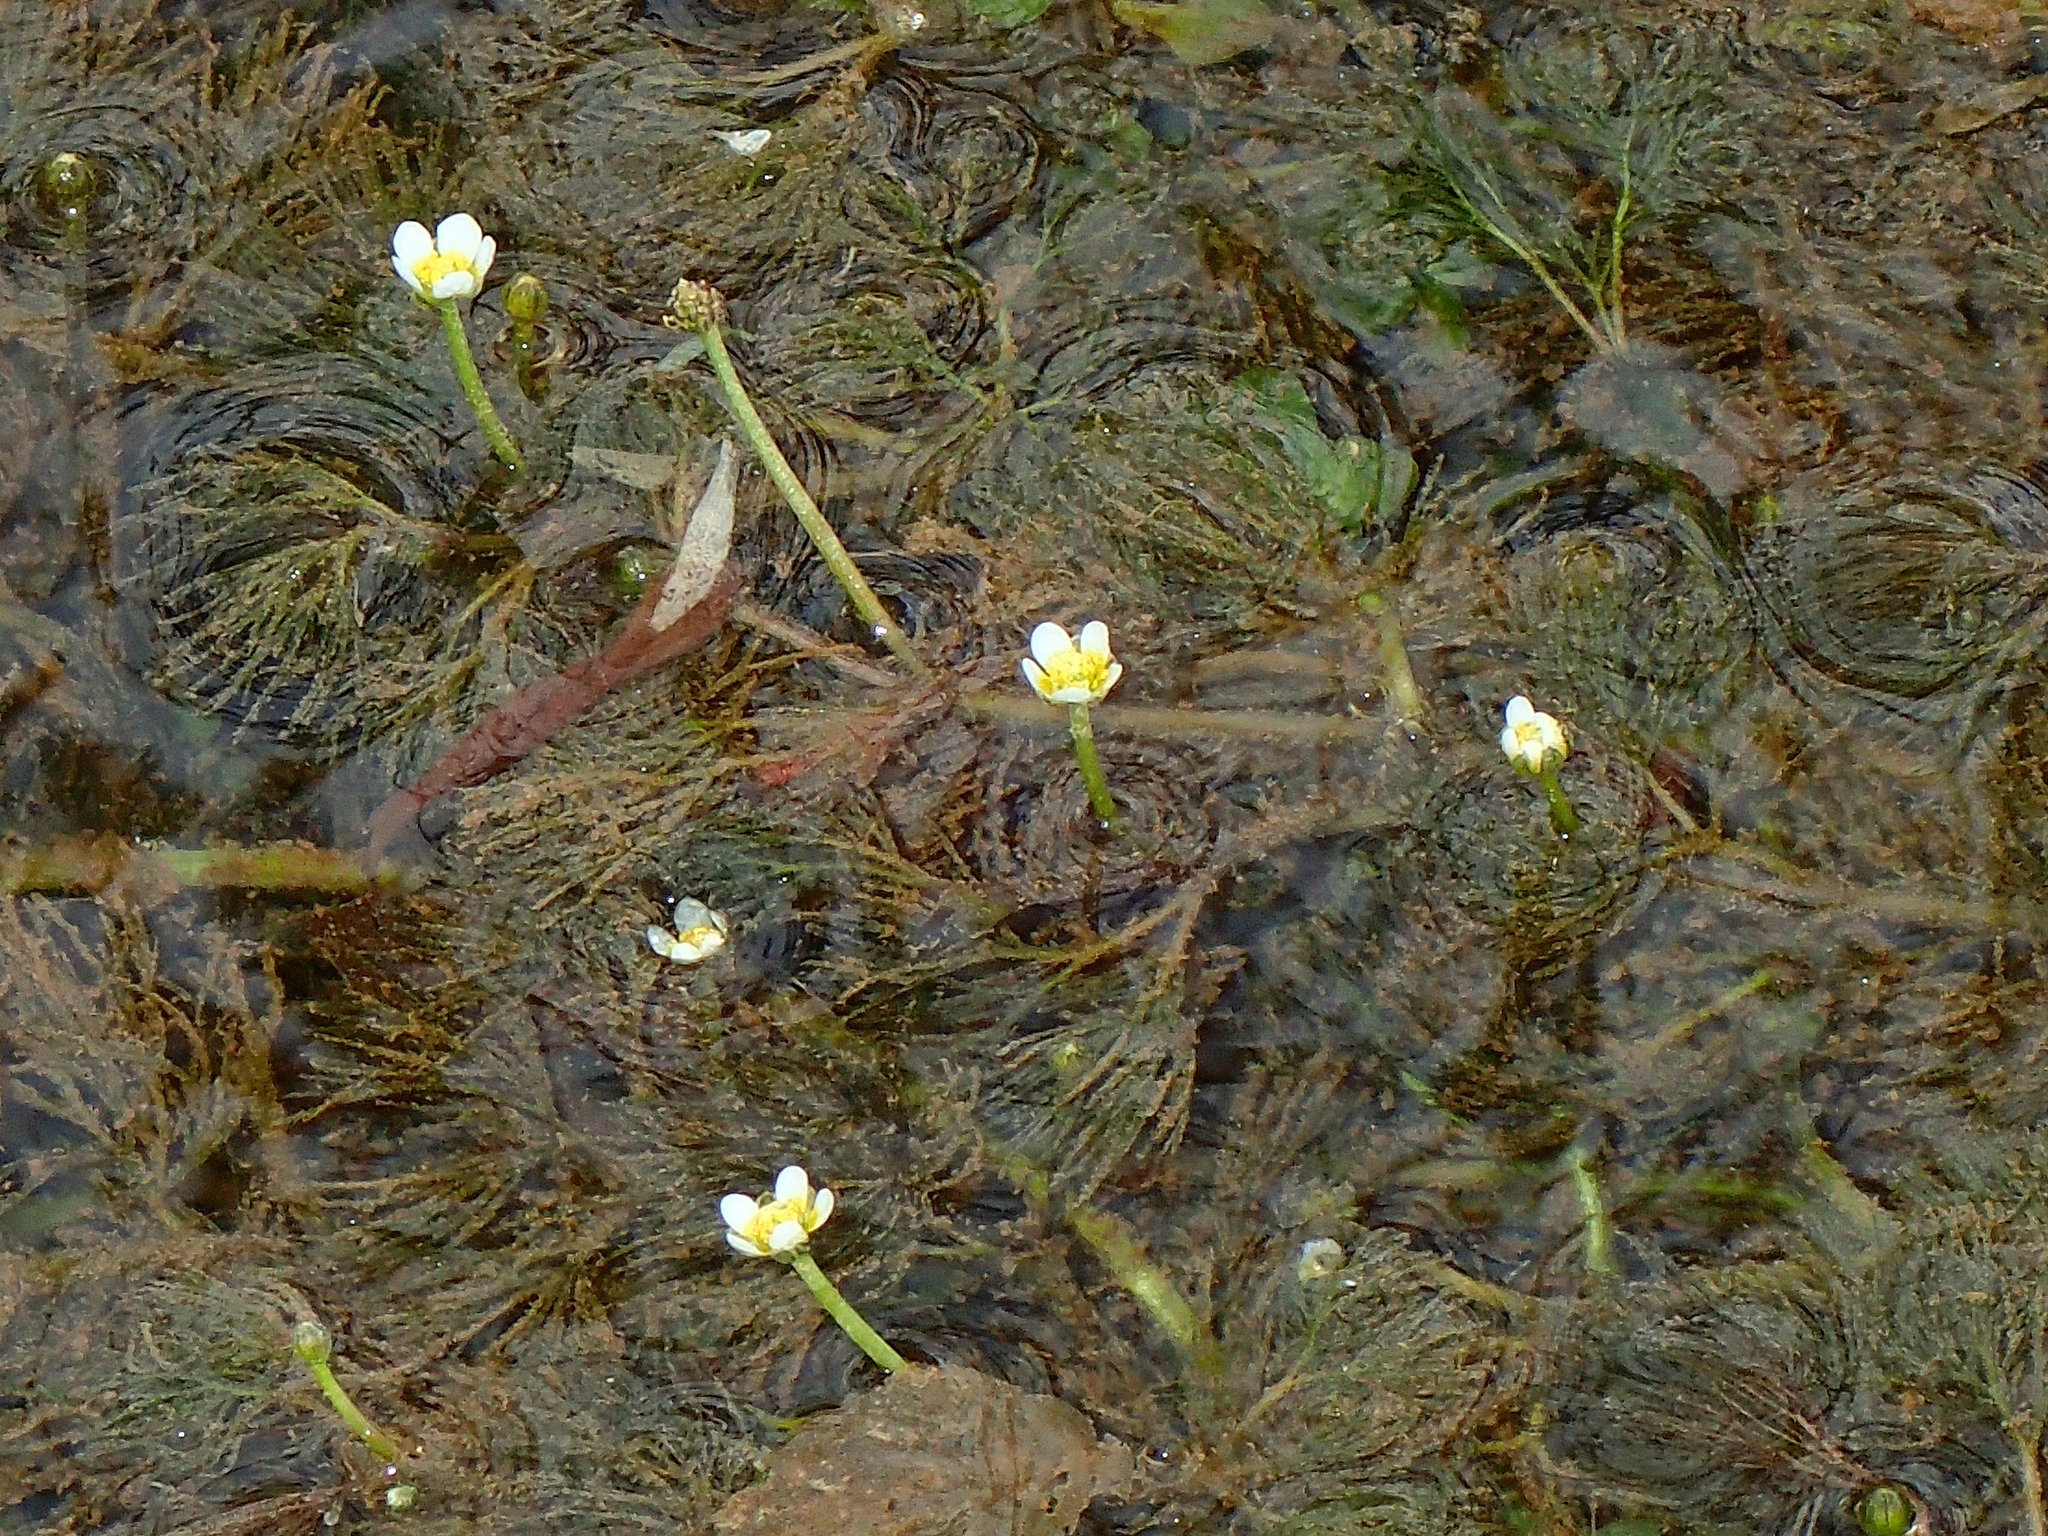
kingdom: Plantae
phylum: Tracheophyta
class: Magnoliopsida
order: Ranunculales
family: Ranunculaceae
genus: Ranunculus
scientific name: Ranunculus trichophyllus
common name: Thread-leaved water-crowfoot
